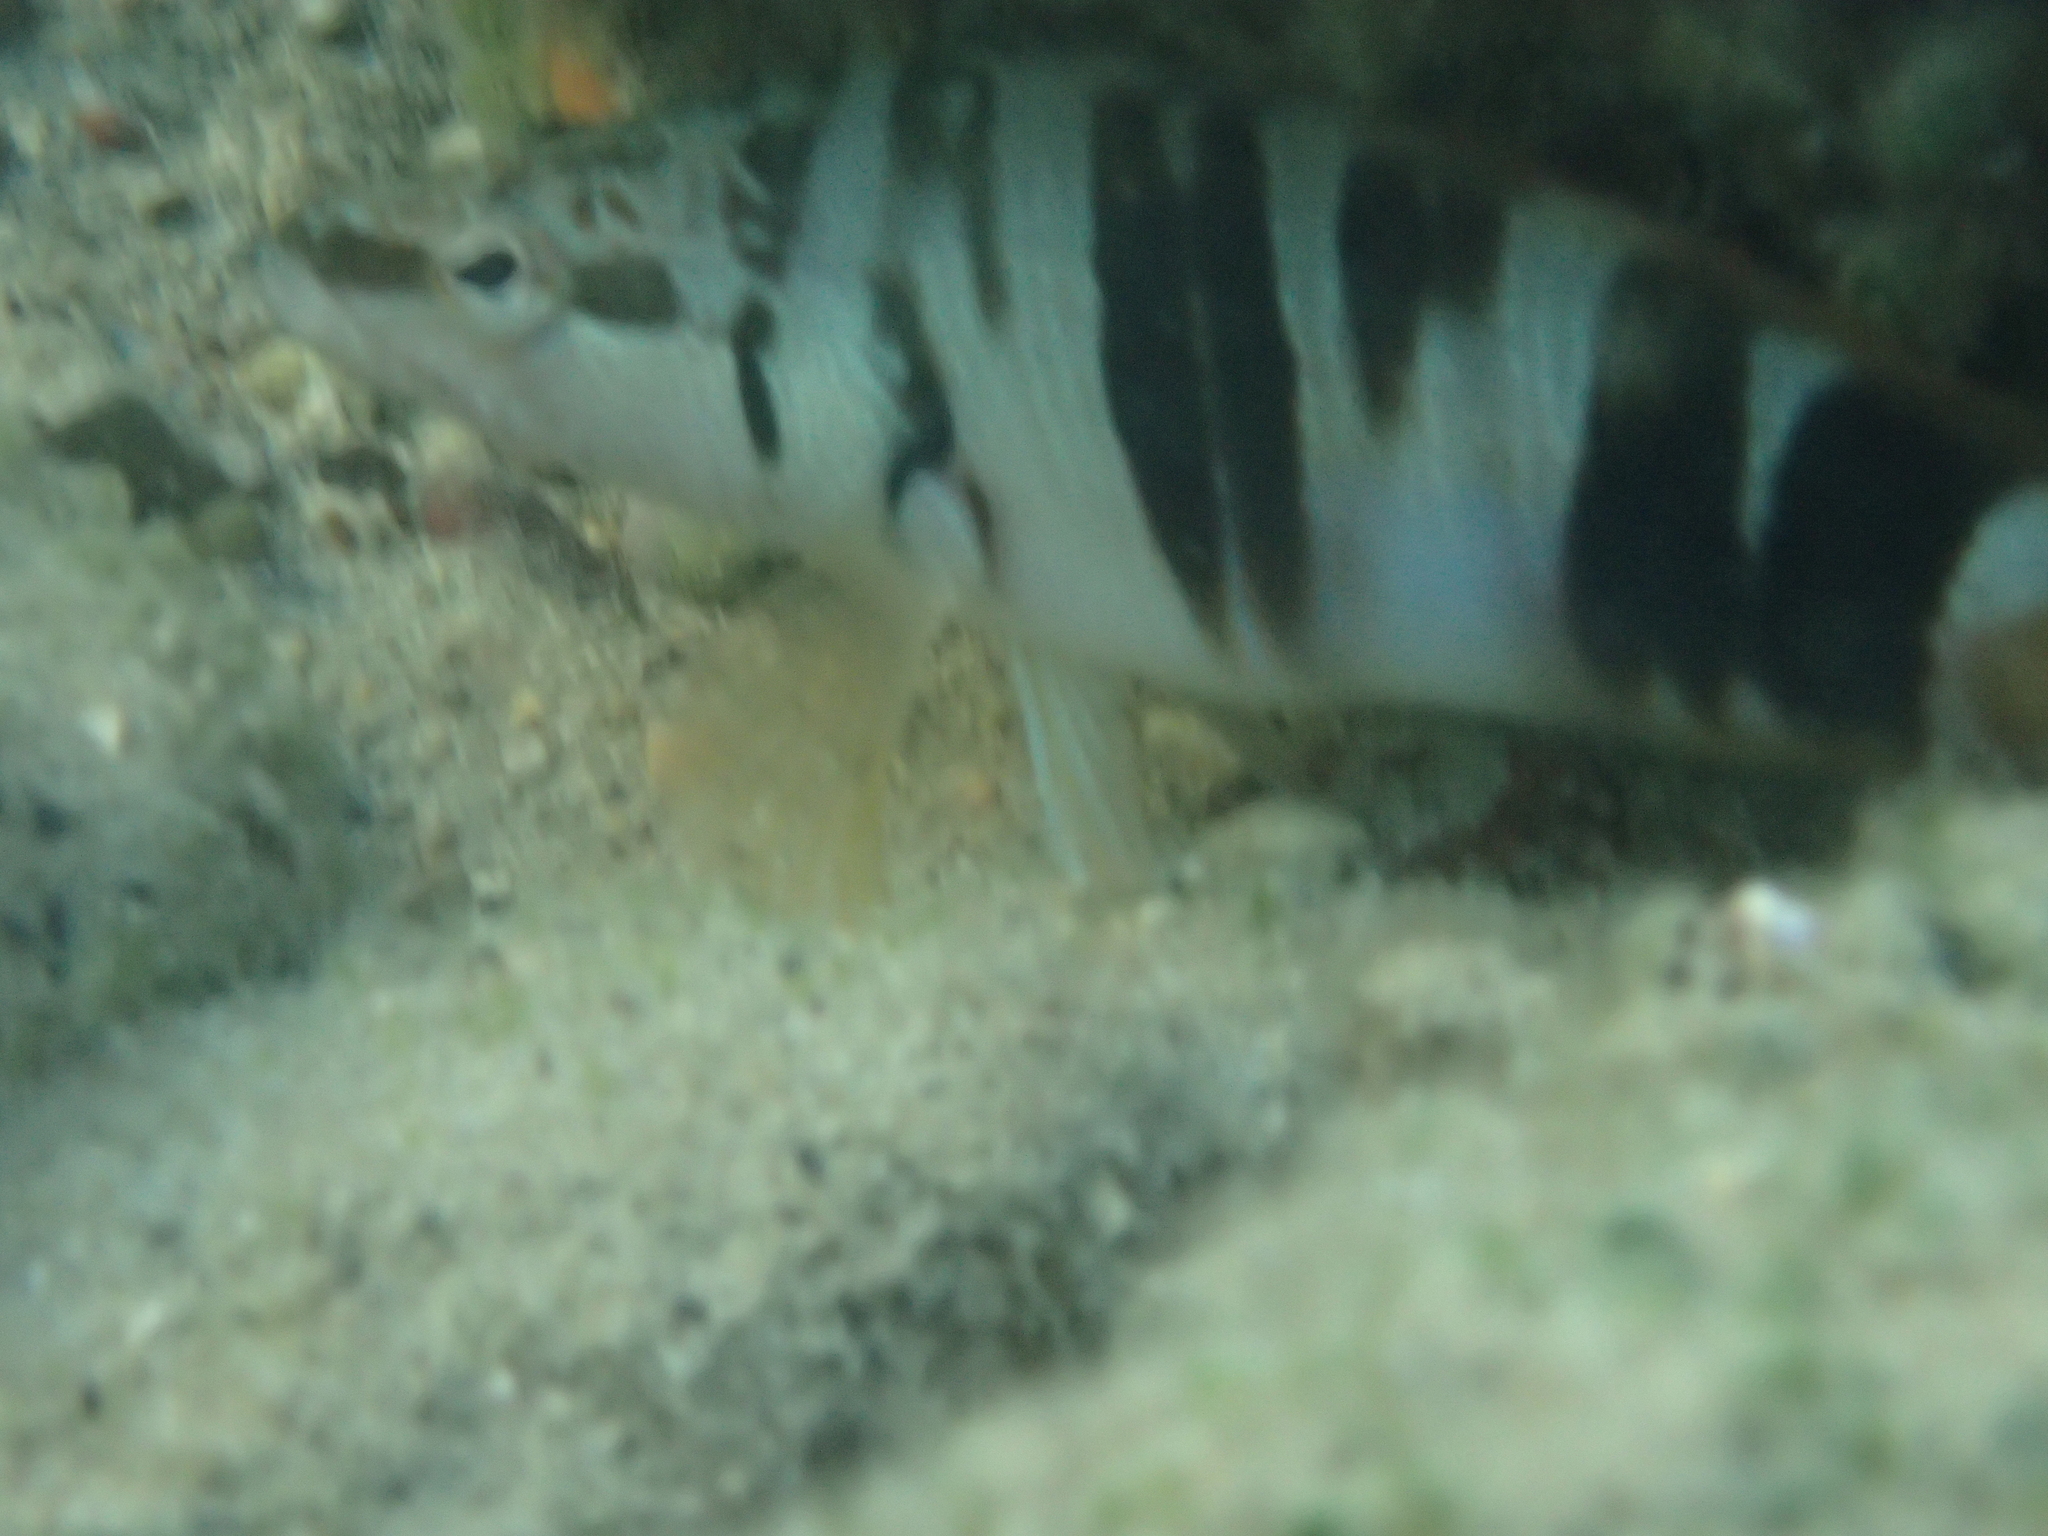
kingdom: Animalia
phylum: Chordata
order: Perciformes
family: Serranidae
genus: Serranus
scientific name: Serranus scriba
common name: Painted comber
